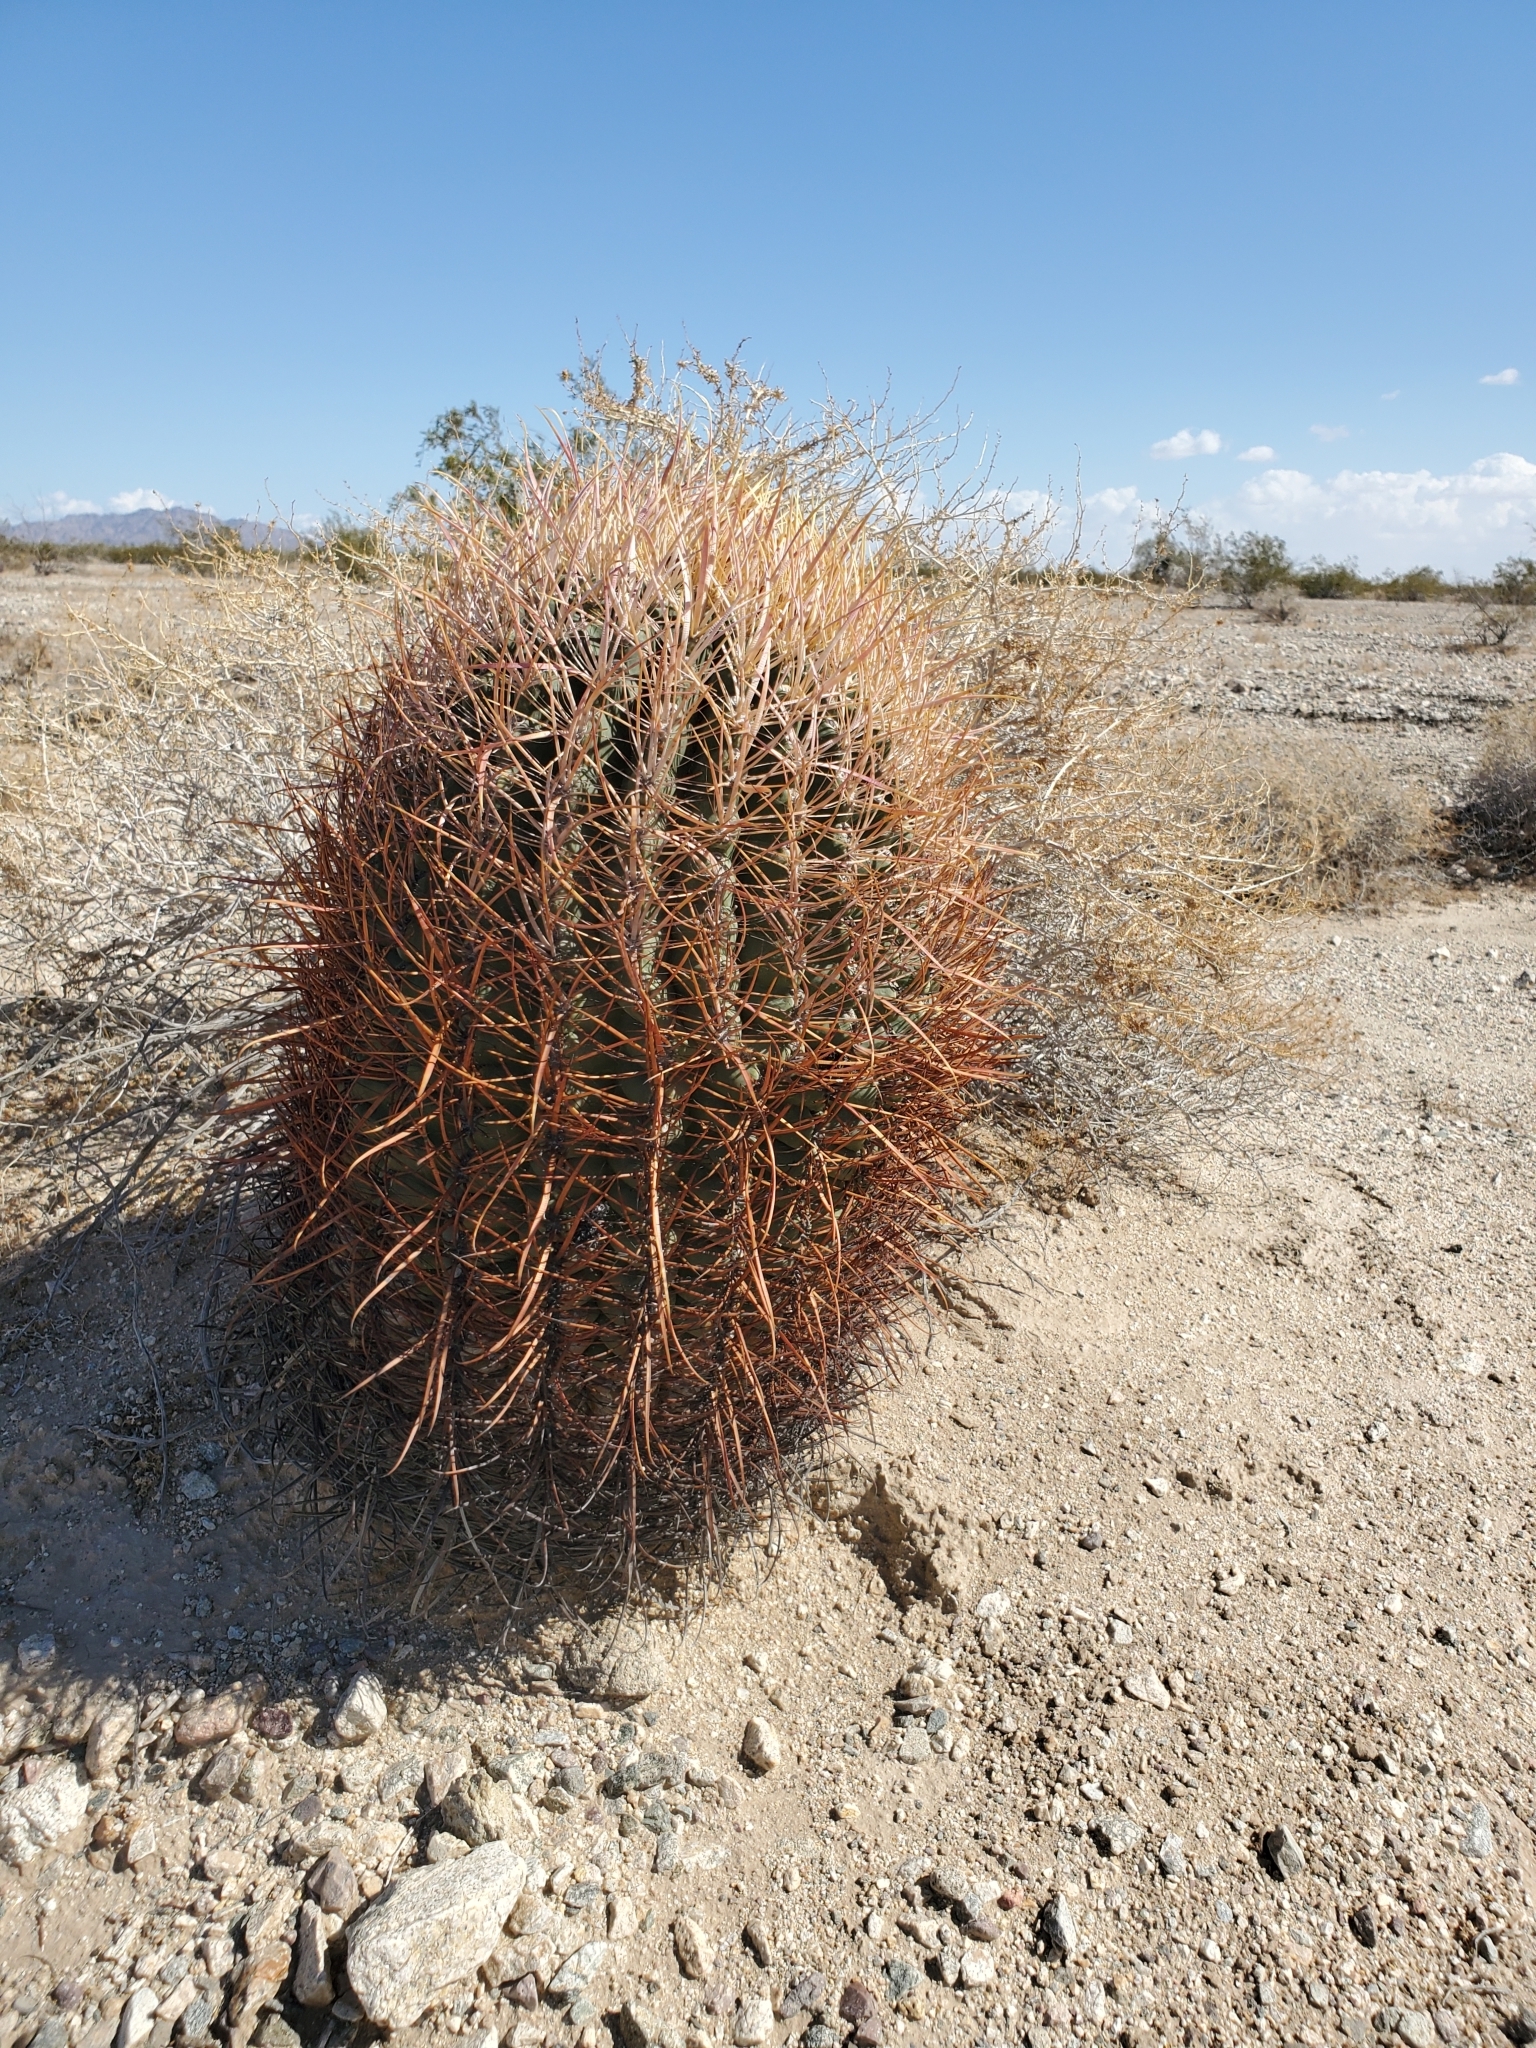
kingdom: Plantae
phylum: Tracheophyta
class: Magnoliopsida
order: Caryophyllales
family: Cactaceae
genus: Ferocactus
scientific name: Ferocactus cylindraceus
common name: California barrel cactus
